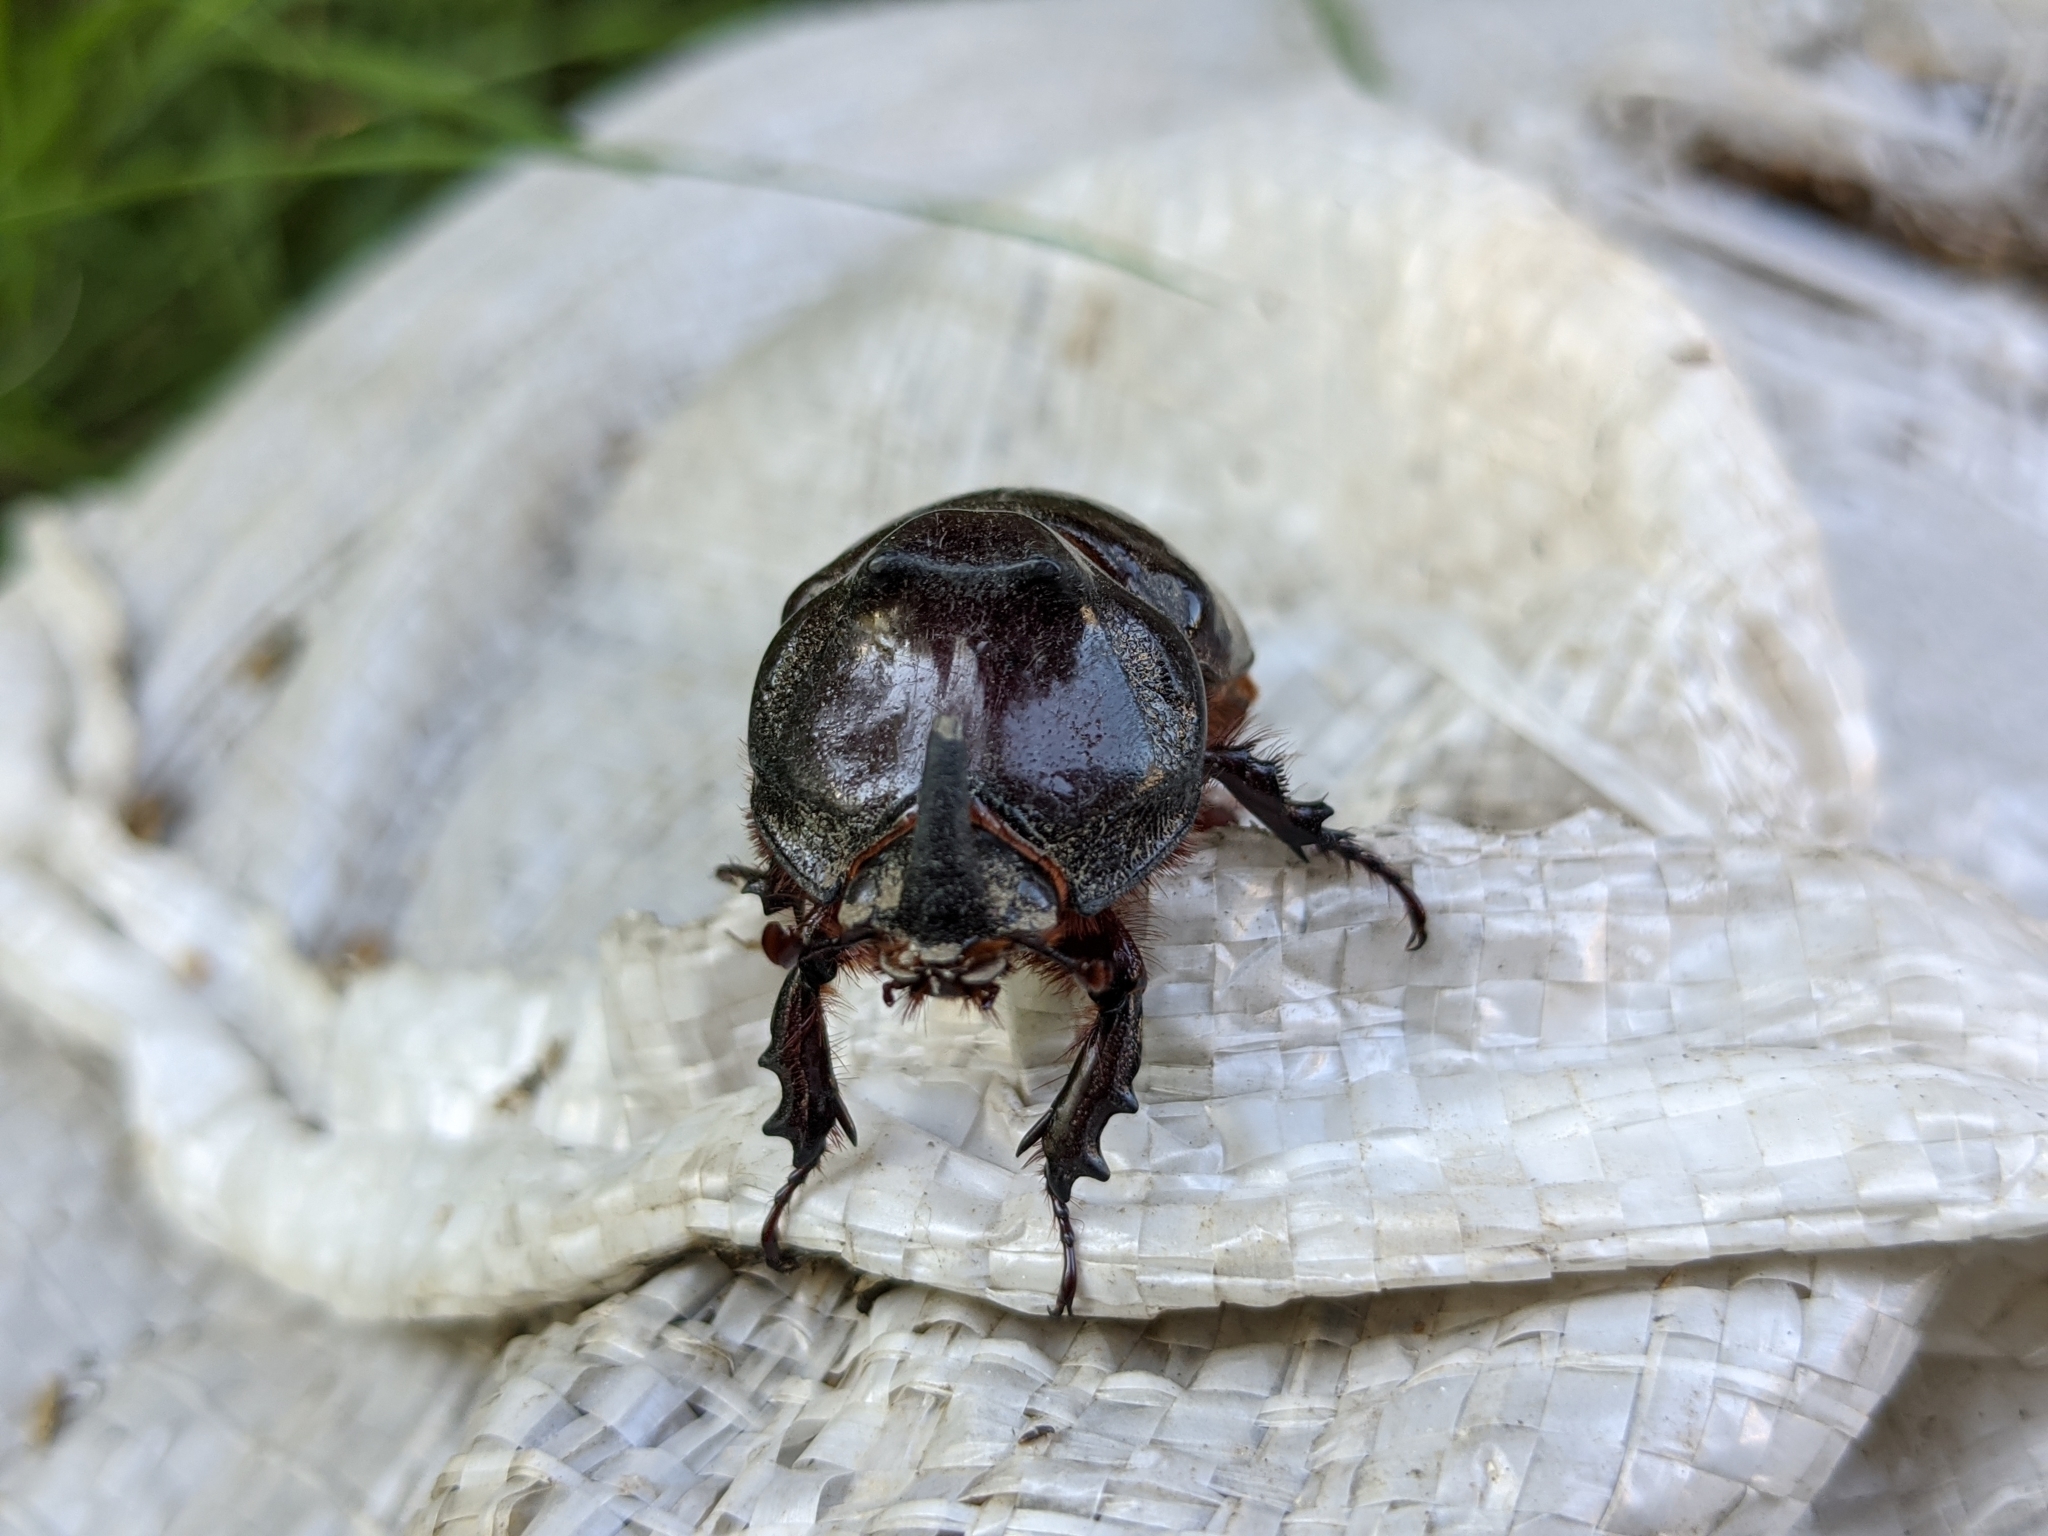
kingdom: Animalia
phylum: Arthropoda
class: Insecta
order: Coleoptera
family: Scarabaeidae
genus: Oryctes
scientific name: Oryctes nasicornis
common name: European rhinoceros beetle
